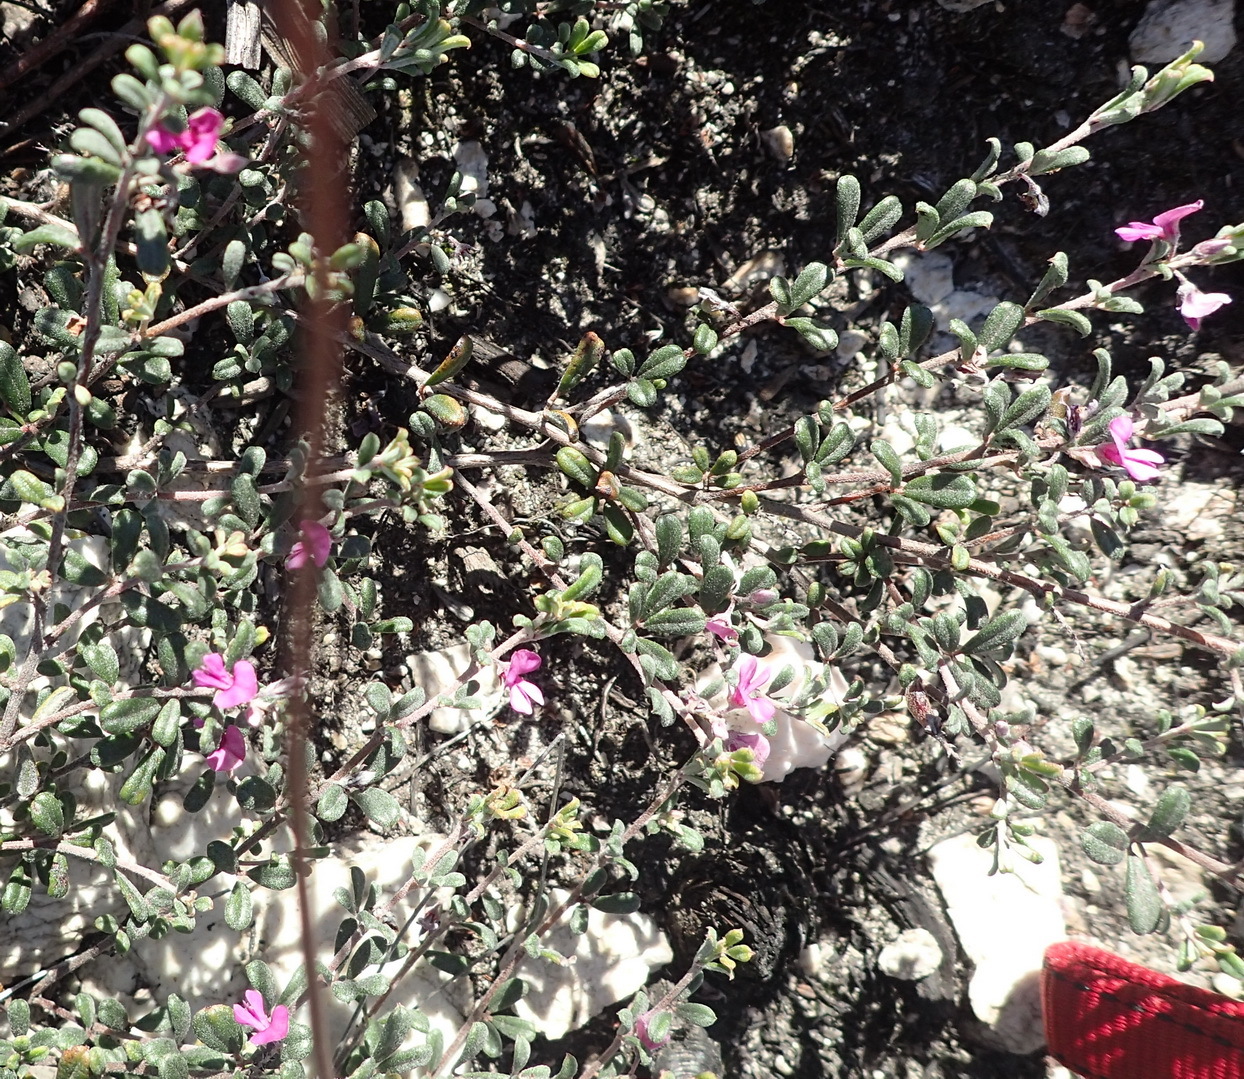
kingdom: Plantae
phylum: Tracheophyta
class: Magnoliopsida
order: Fabales
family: Fabaceae
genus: Indigofera
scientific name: Indigofera
